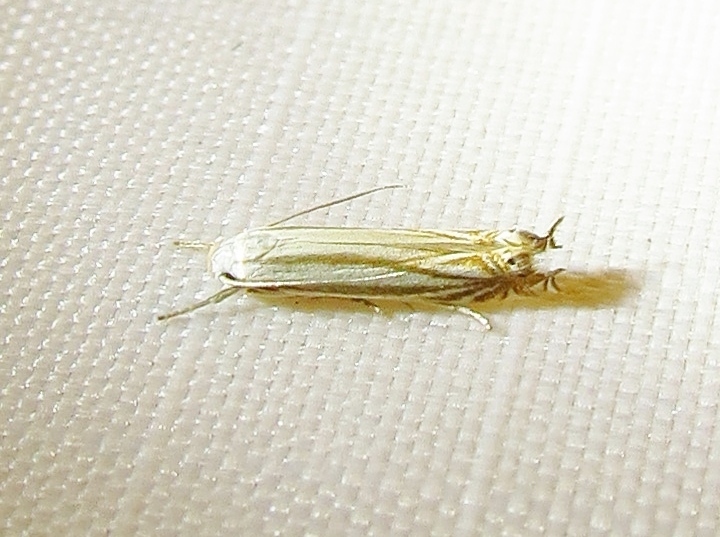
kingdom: Animalia
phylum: Arthropoda
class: Insecta
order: Lepidoptera
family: Gelechiidae
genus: Polyhymno
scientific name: Polyhymno luteostrigella
